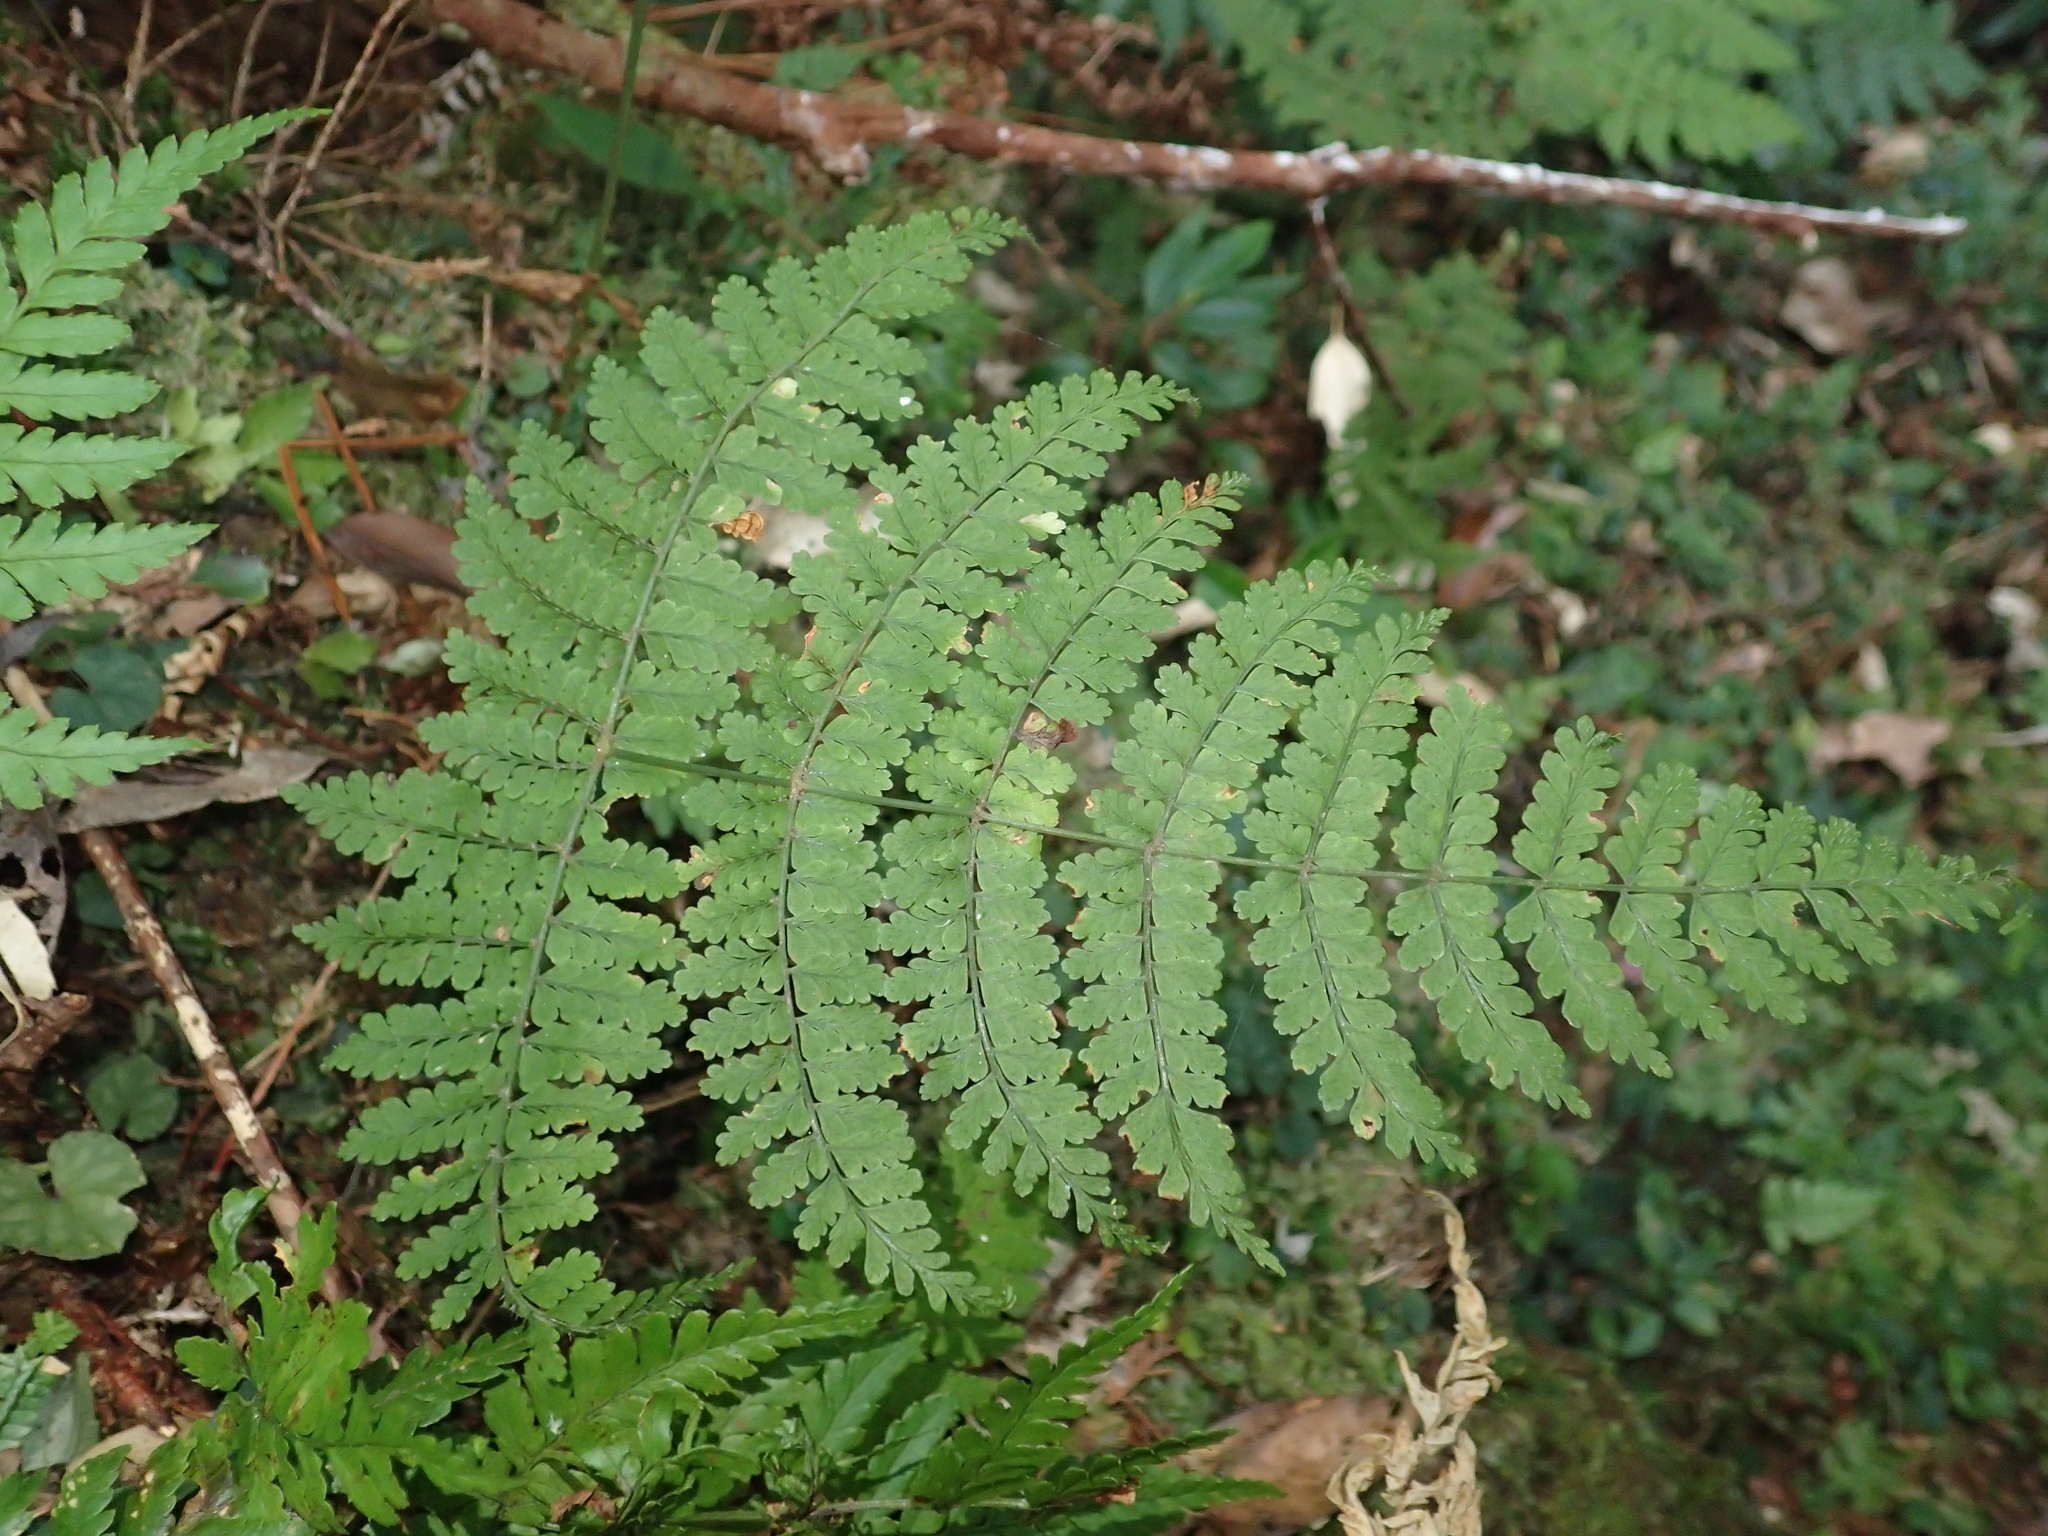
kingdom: Plantae
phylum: Tracheophyta
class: Polypodiopsida
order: Polypodiales
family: Dryopteridaceae
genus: Dryopteris
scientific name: Dryopteris paleolata
